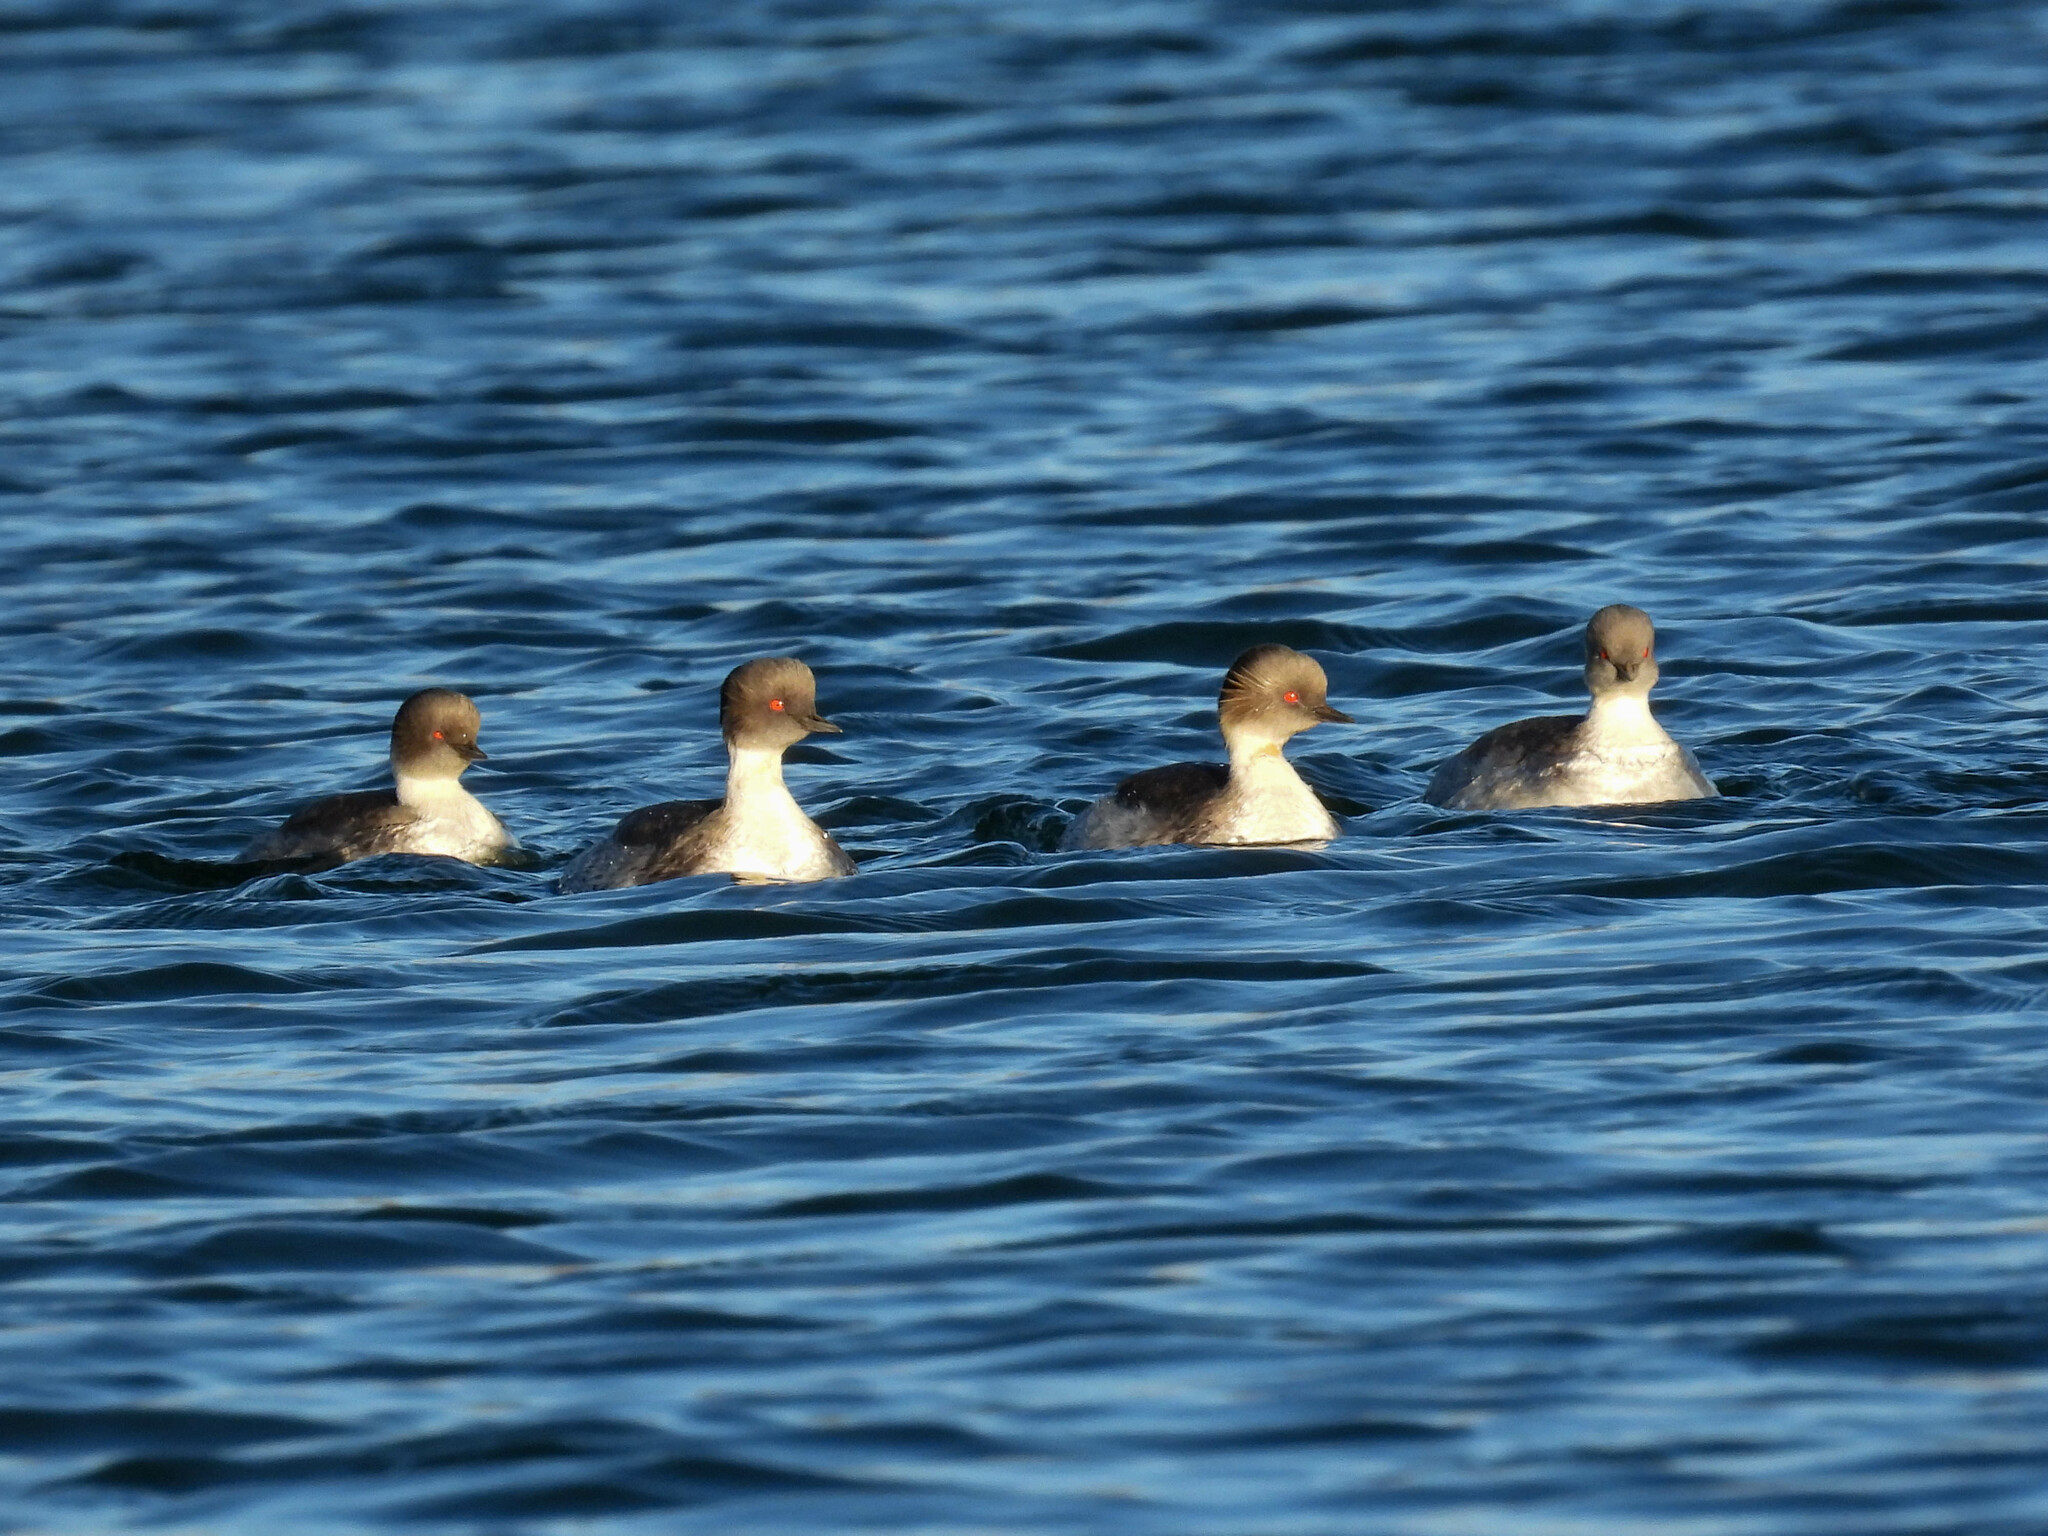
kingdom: Animalia
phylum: Chordata
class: Aves
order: Podicipediformes
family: Podicipedidae
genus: Podiceps
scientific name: Podiceps occipitalis
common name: Silvery grebe
